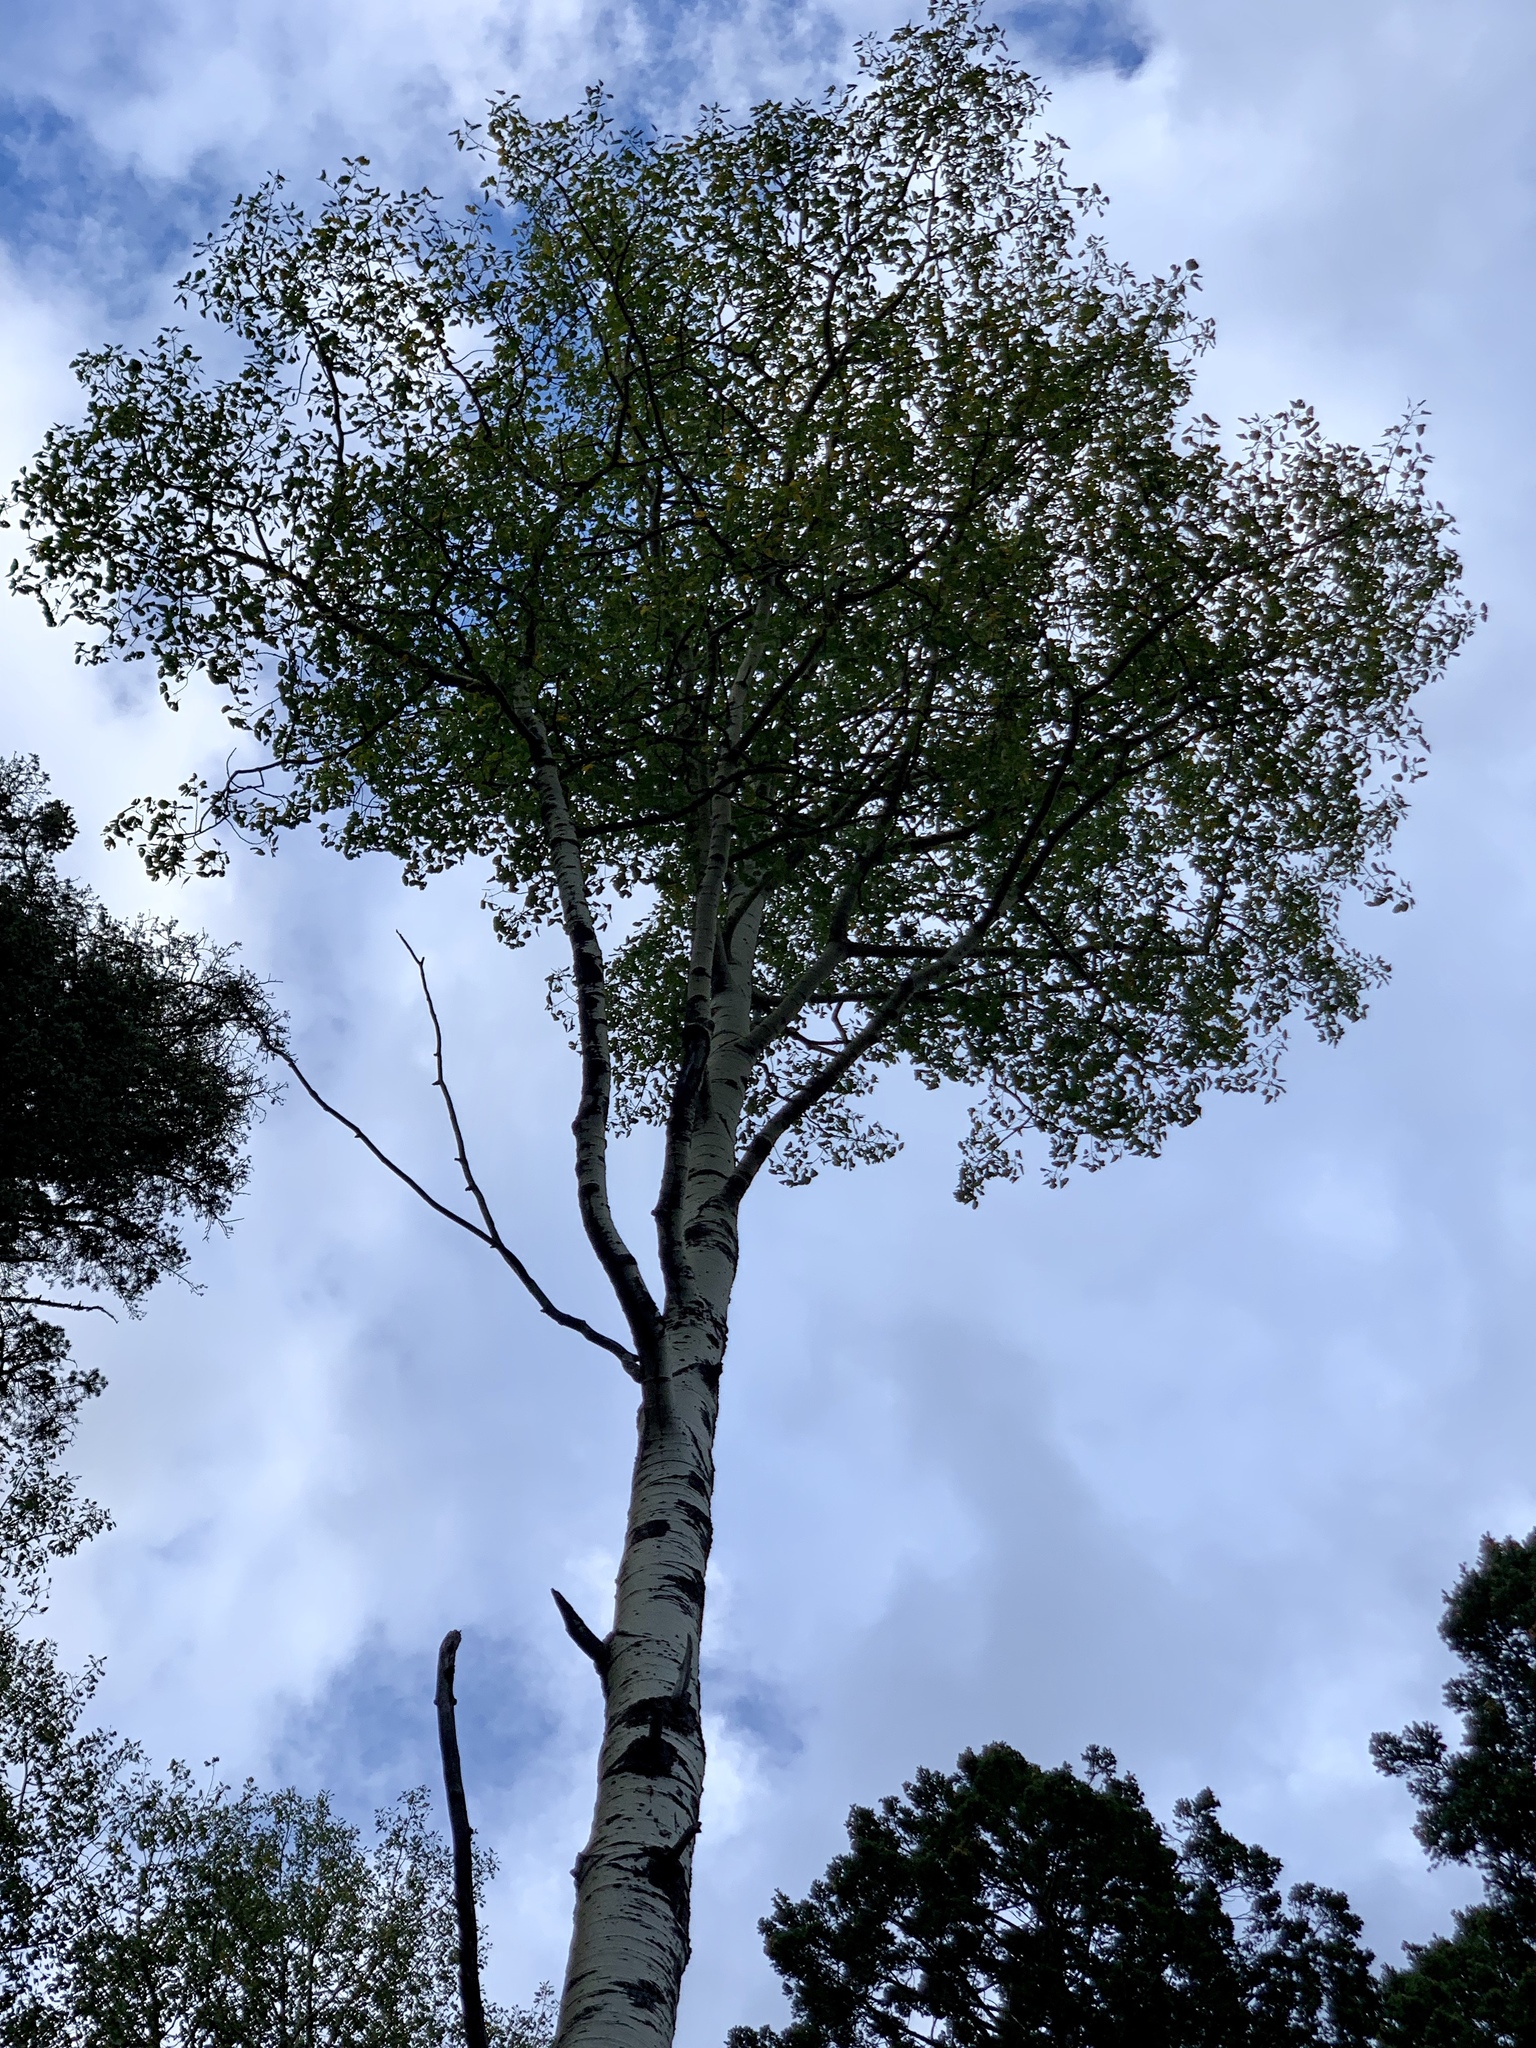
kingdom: Plantae
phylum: Tracheophyta
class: Magnoliopsida
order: Malpighiales
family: Salicaceae
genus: Populus
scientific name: Populus tremuloides
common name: Quaking aspen
